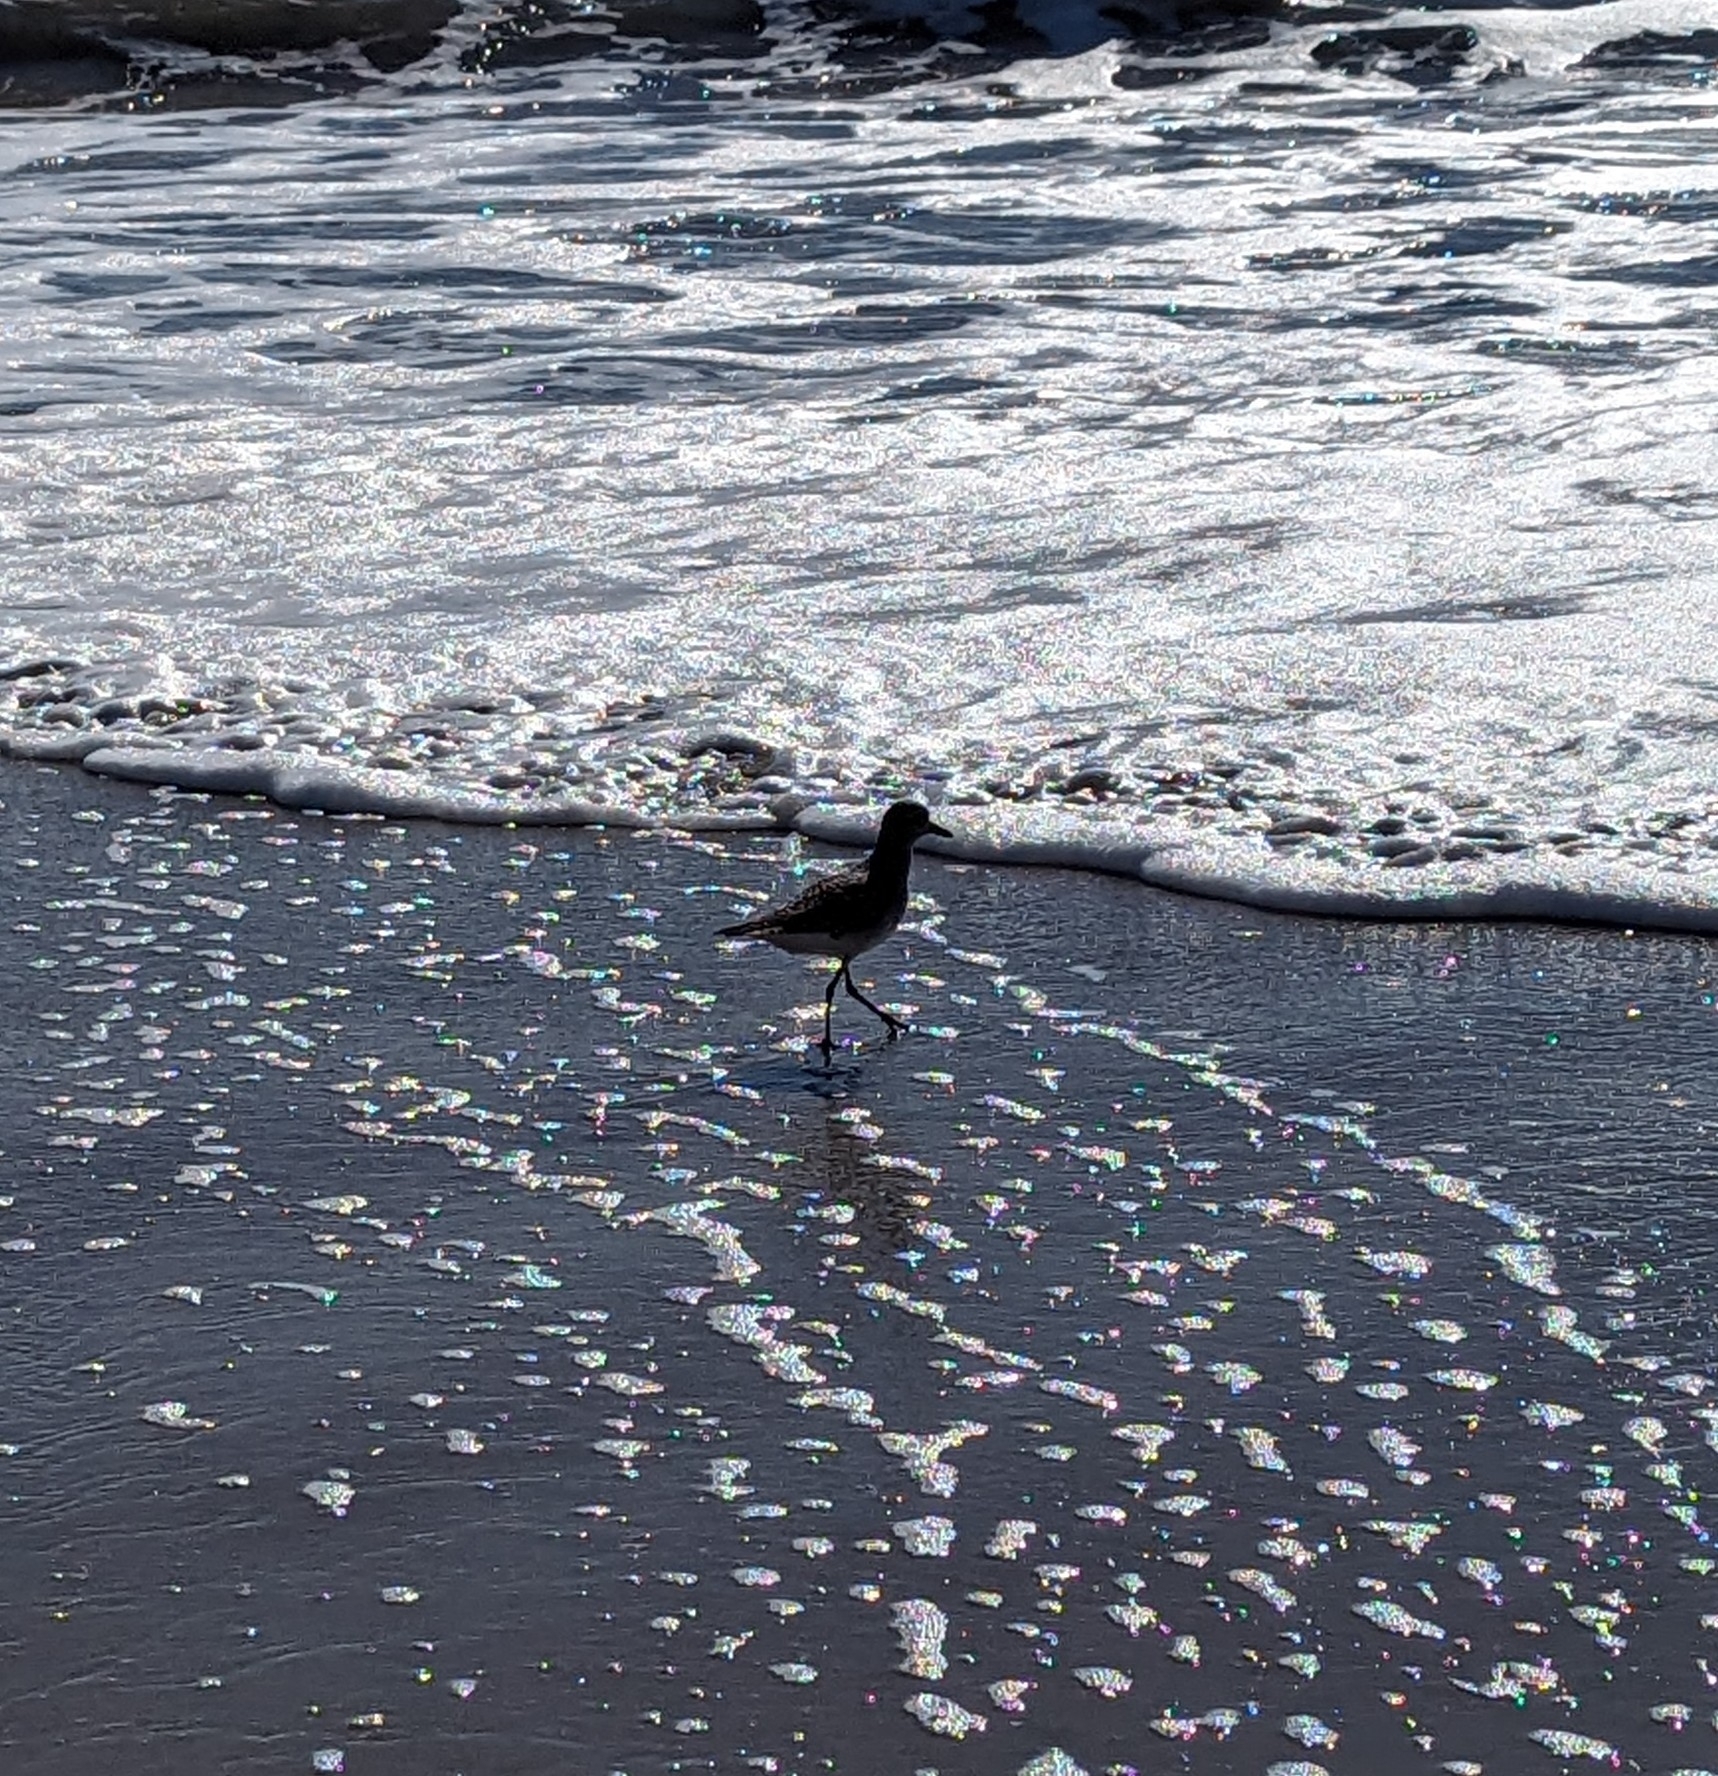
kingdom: Animalia
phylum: Chordata
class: Aves
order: Charadriiformes
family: Charadriidae
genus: Pluvialis
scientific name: Pluvialis squatarola
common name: Grey plover
